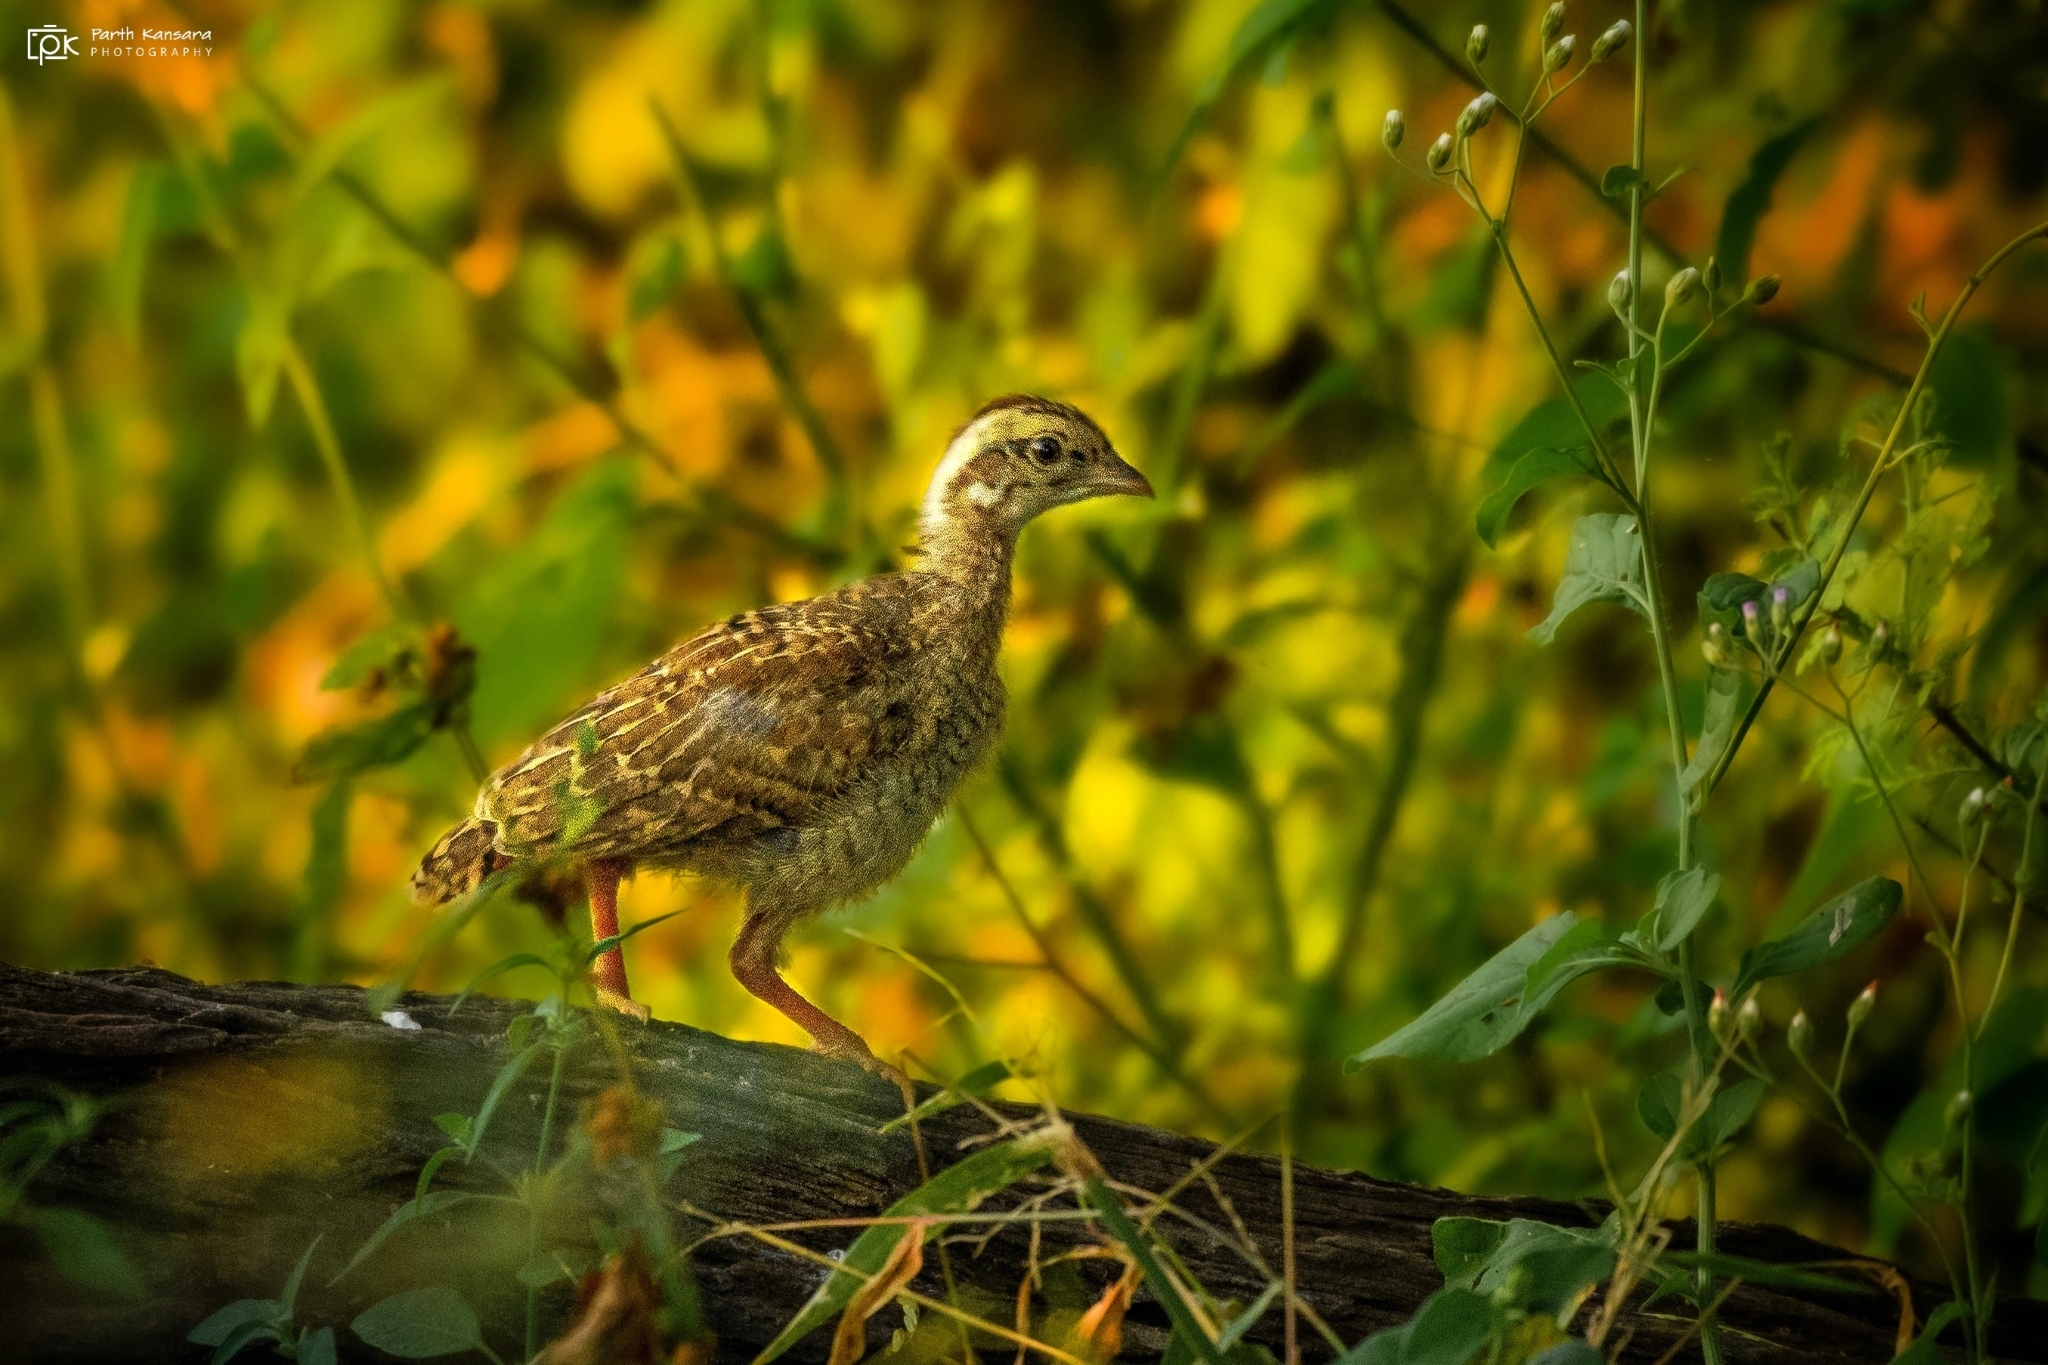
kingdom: Animalia
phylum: Chordata
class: Aves
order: Galliformes
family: Phasianidae
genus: Ortygornis
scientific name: Ortygornis pondicerianus
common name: Grey francolin
